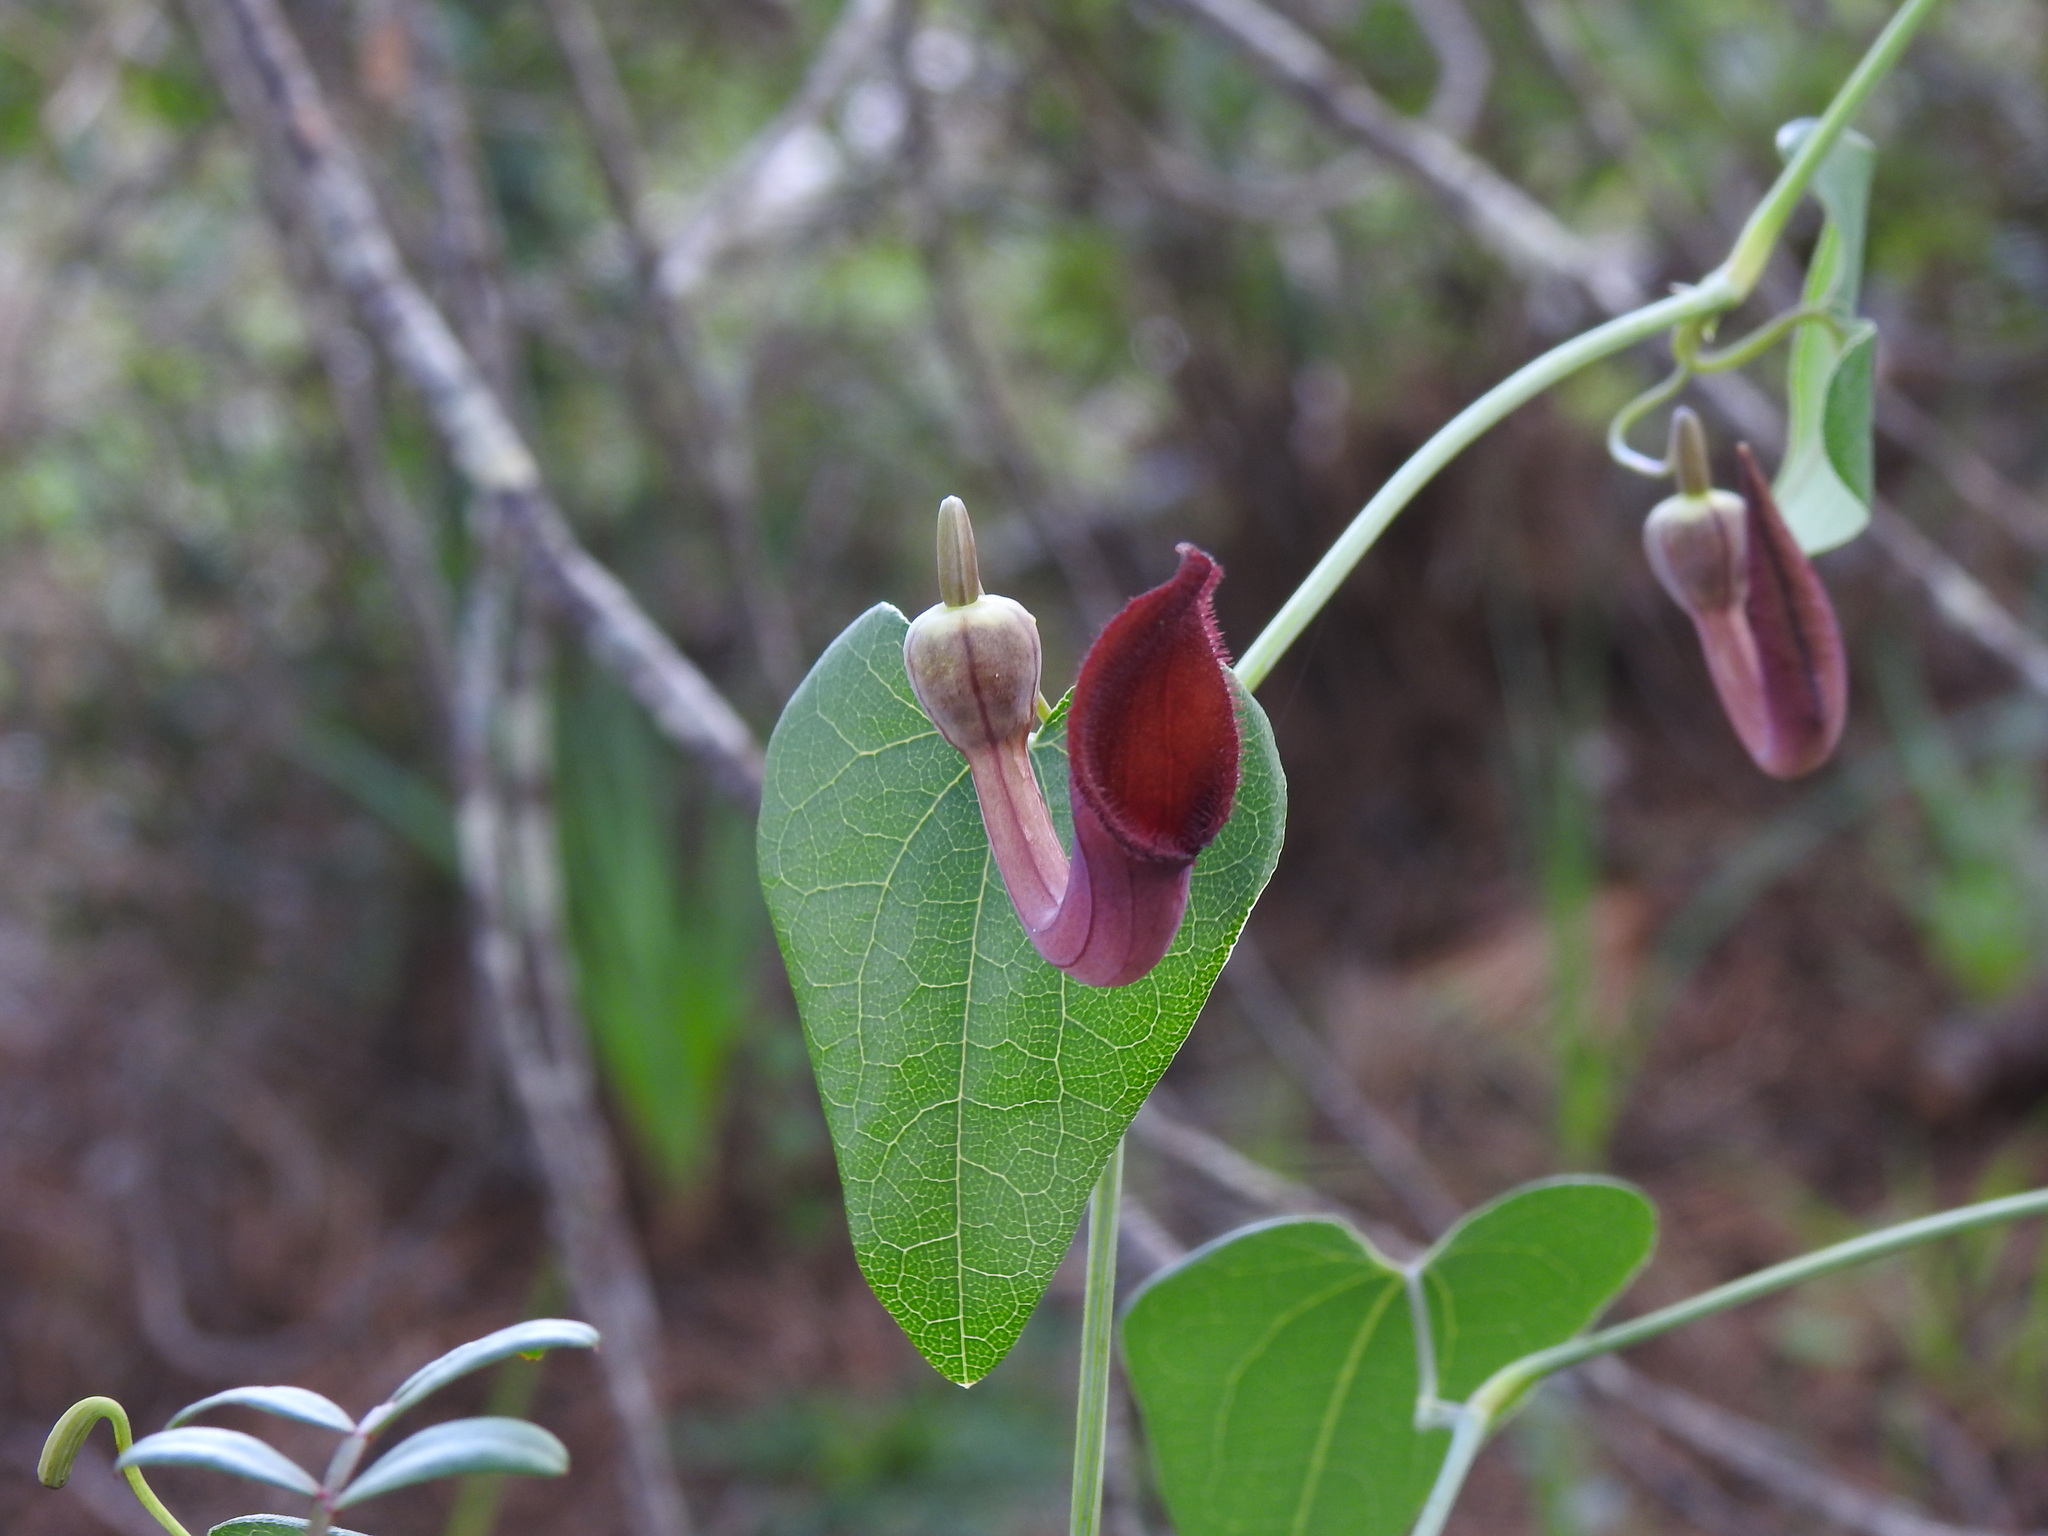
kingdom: Plantae
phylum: Tracheophyta
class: Magnoliopsida
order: Piperales
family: Aristolochiaceae
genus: Aristolochia
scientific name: Aristolochia baetica
